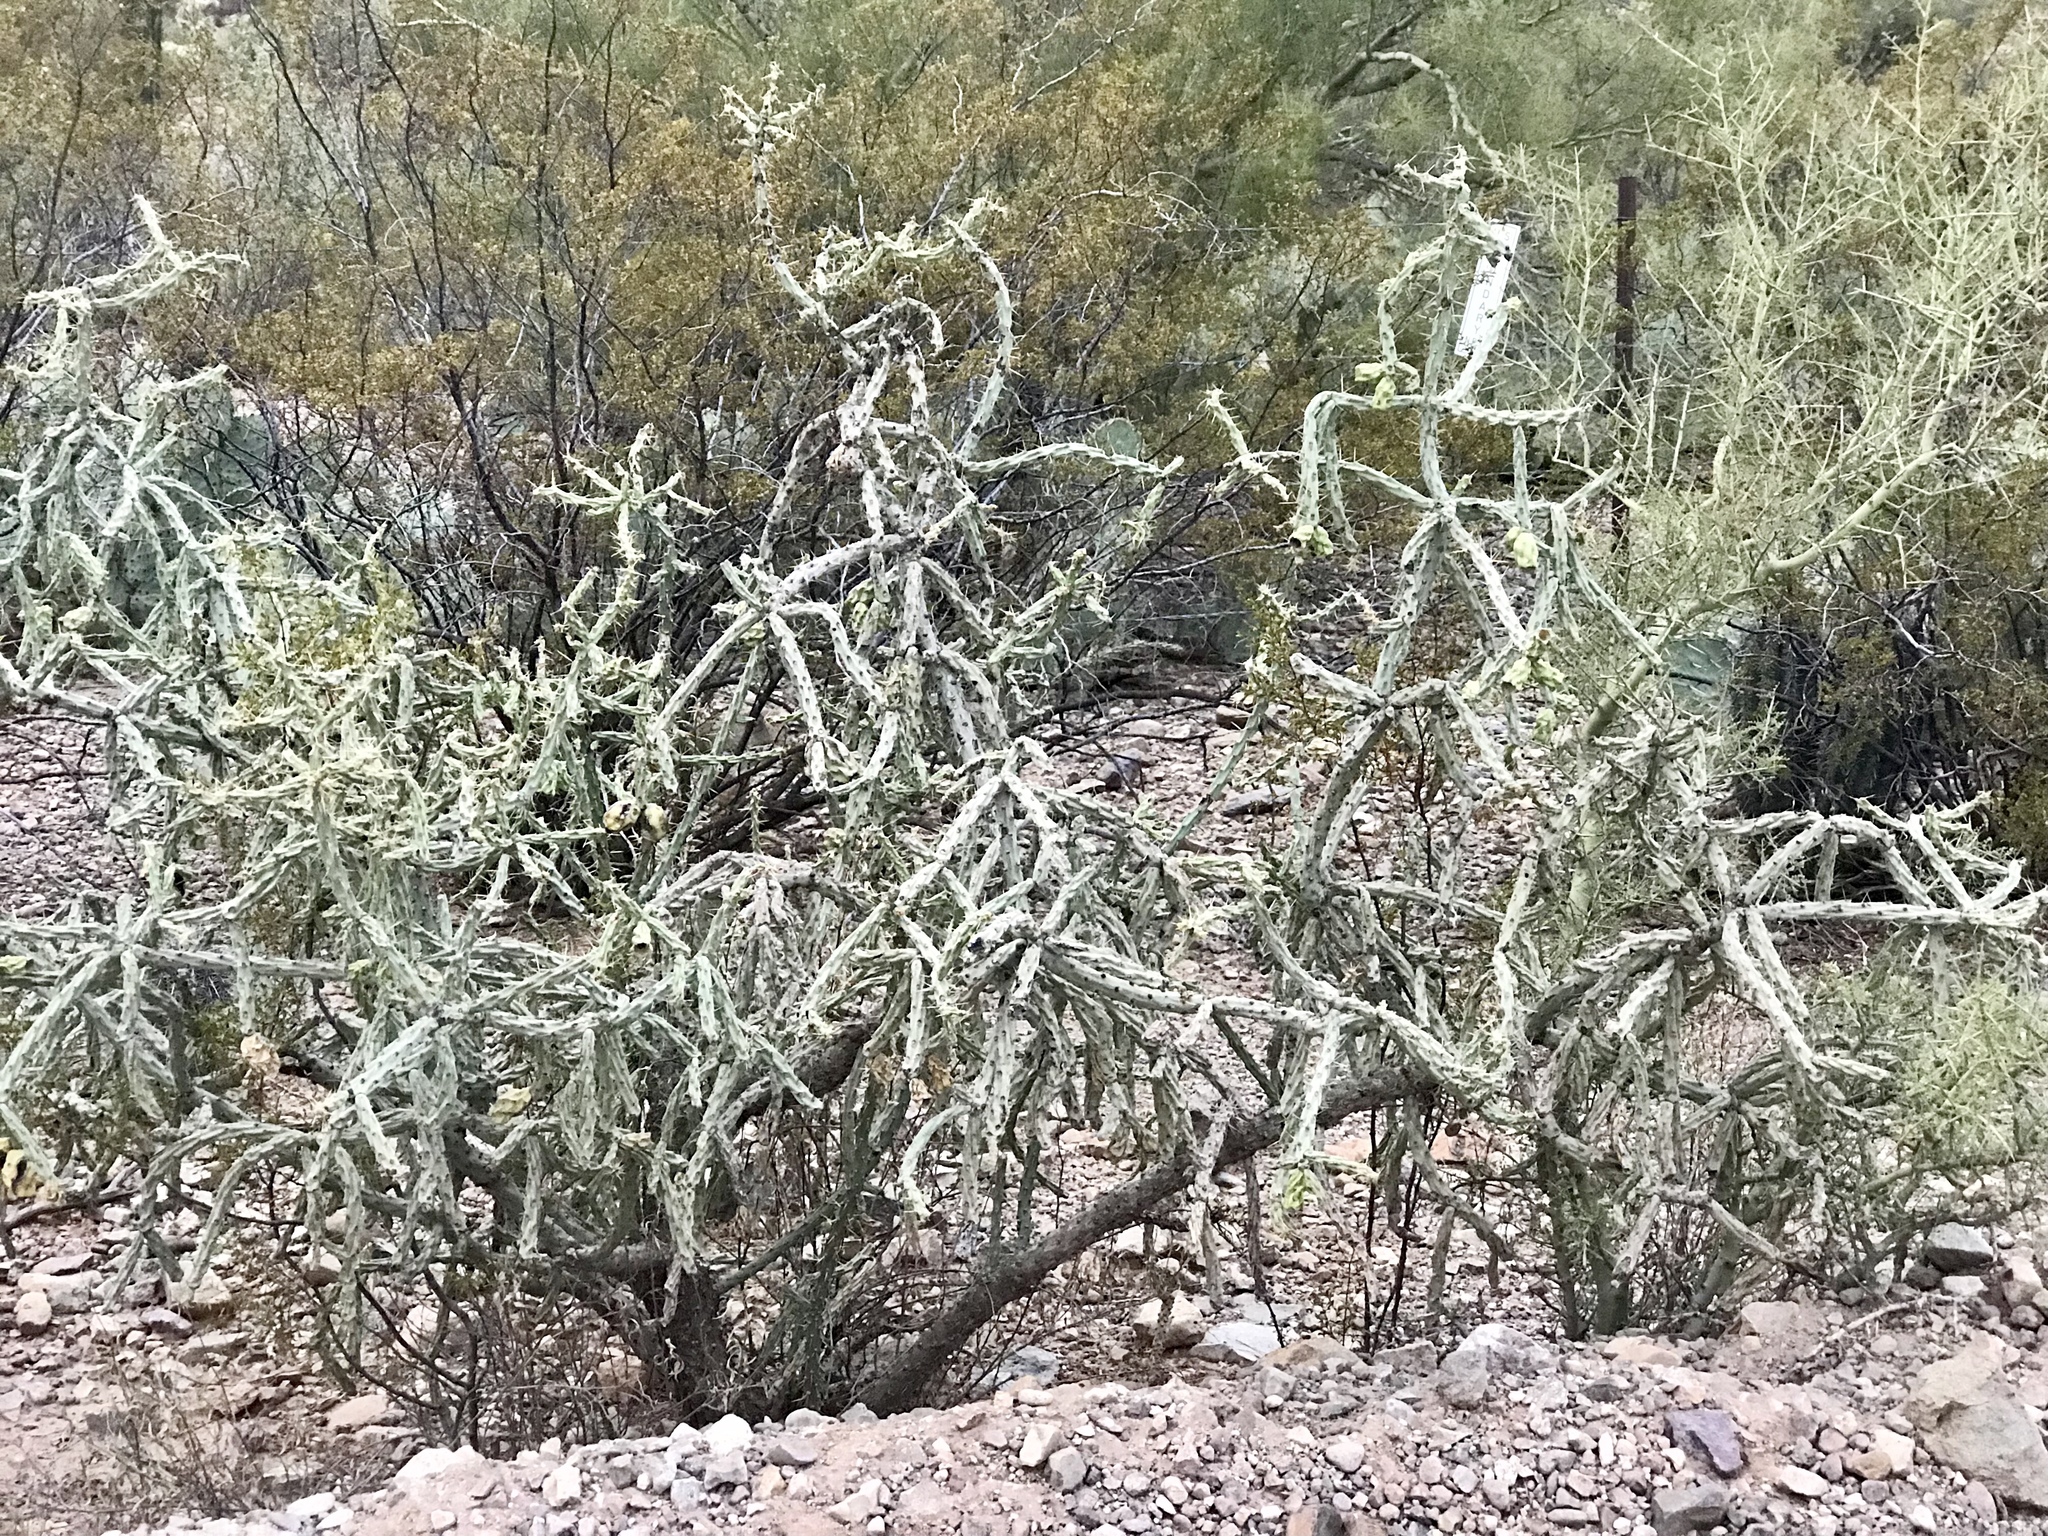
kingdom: Plantae
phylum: Tracheophyta
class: Magnoliopsida
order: Caryophyllales
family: Cactaceae
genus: Cylindropuntia
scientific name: Cylindropuntia acanthocarpa
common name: Buckhorn cholla
